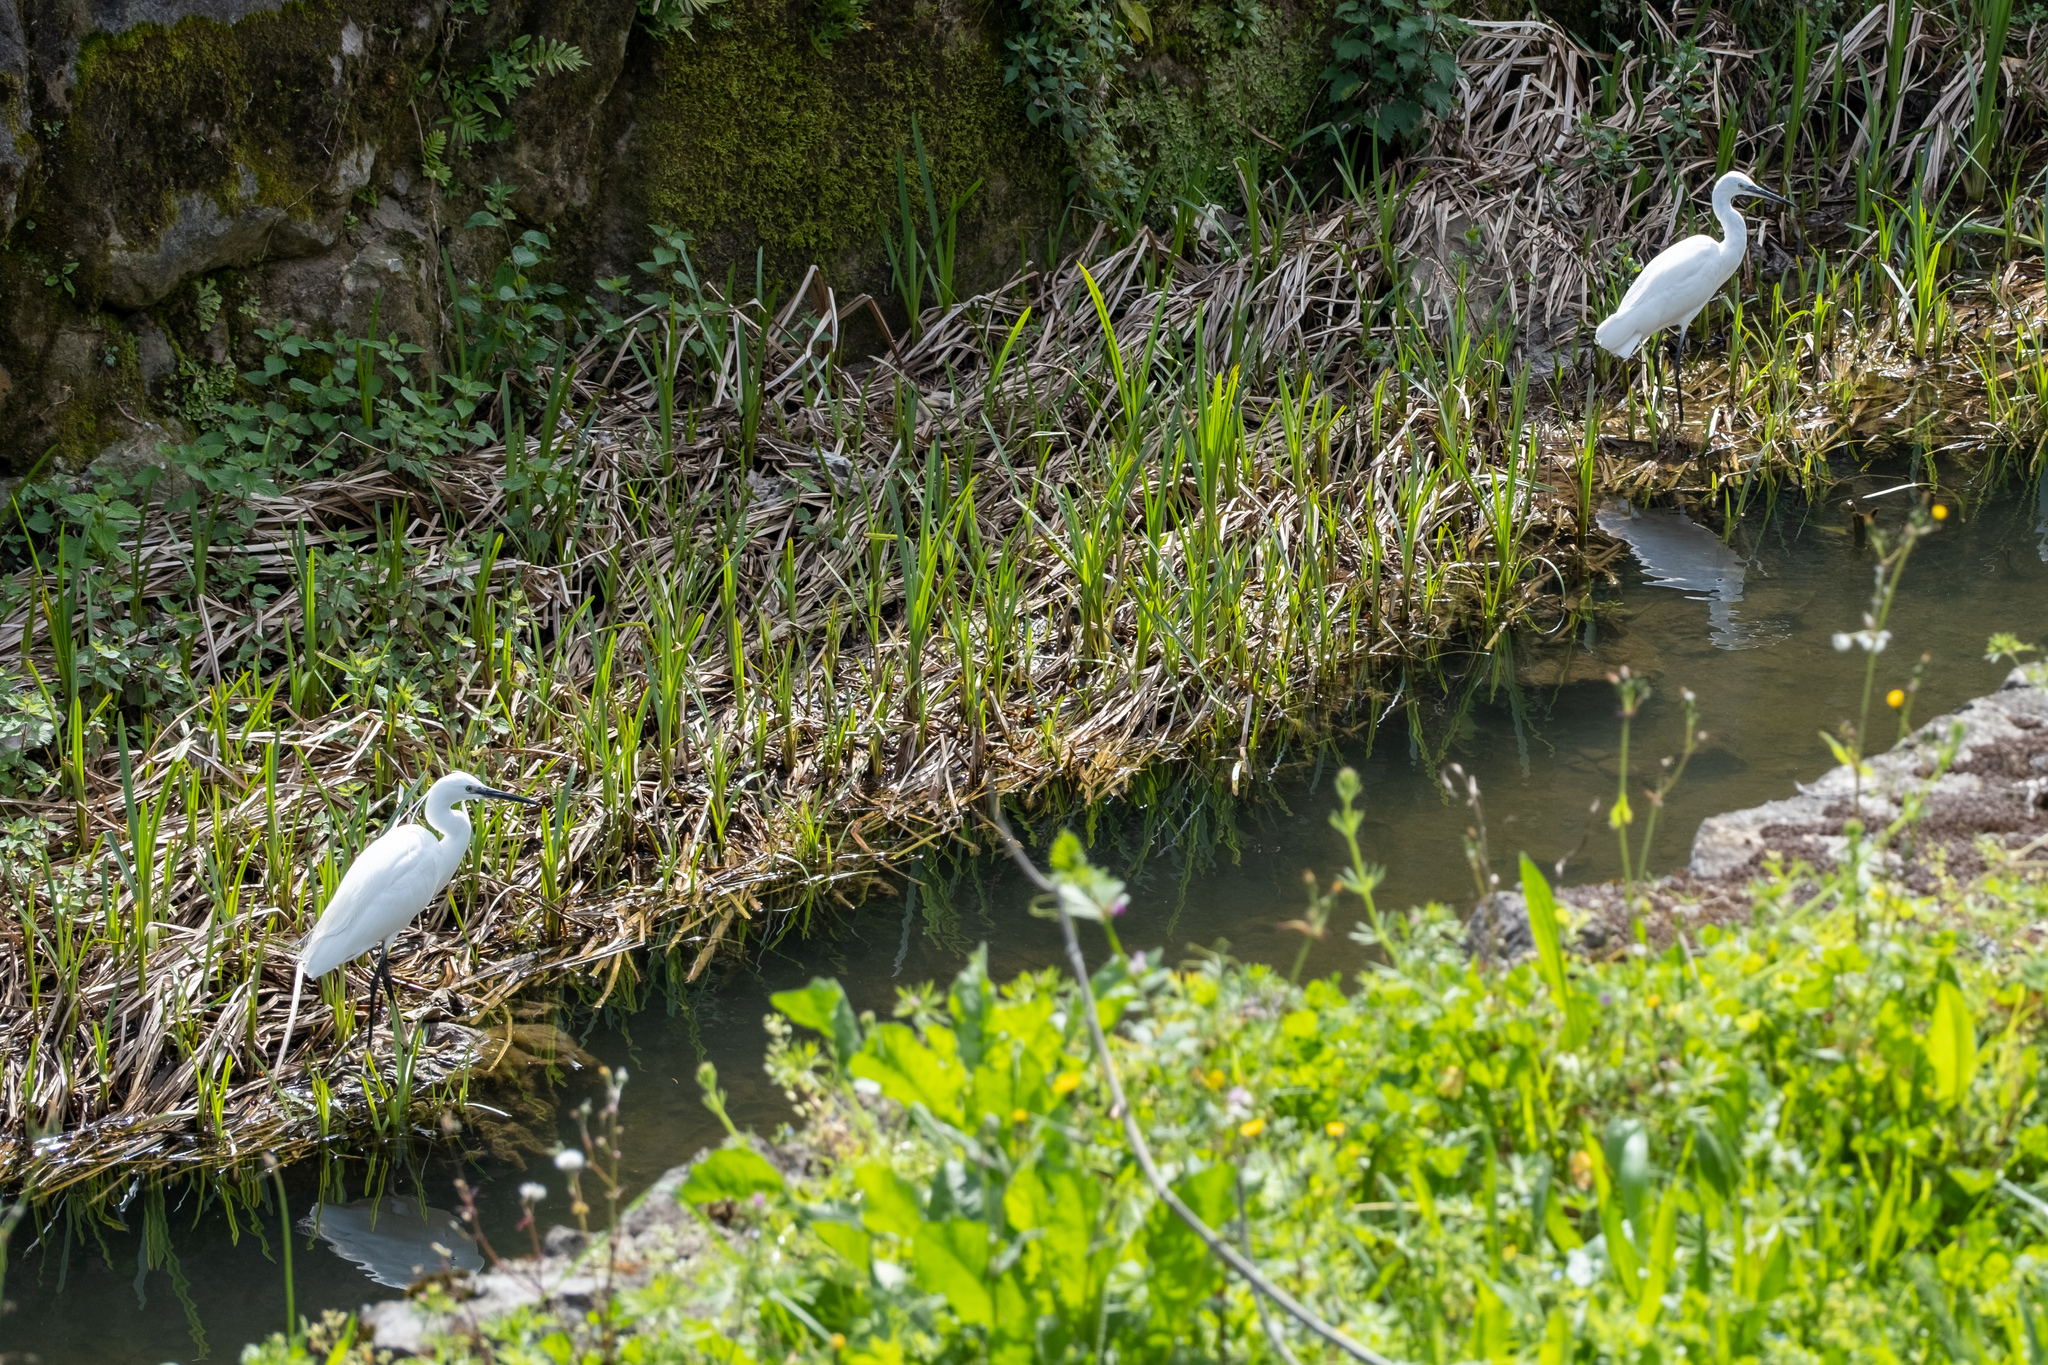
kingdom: Animalia
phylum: Chordata
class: Aves
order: Pelecaniformes
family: Ardeidae
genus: Egretta
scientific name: Egretta garzetta
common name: Little egret
